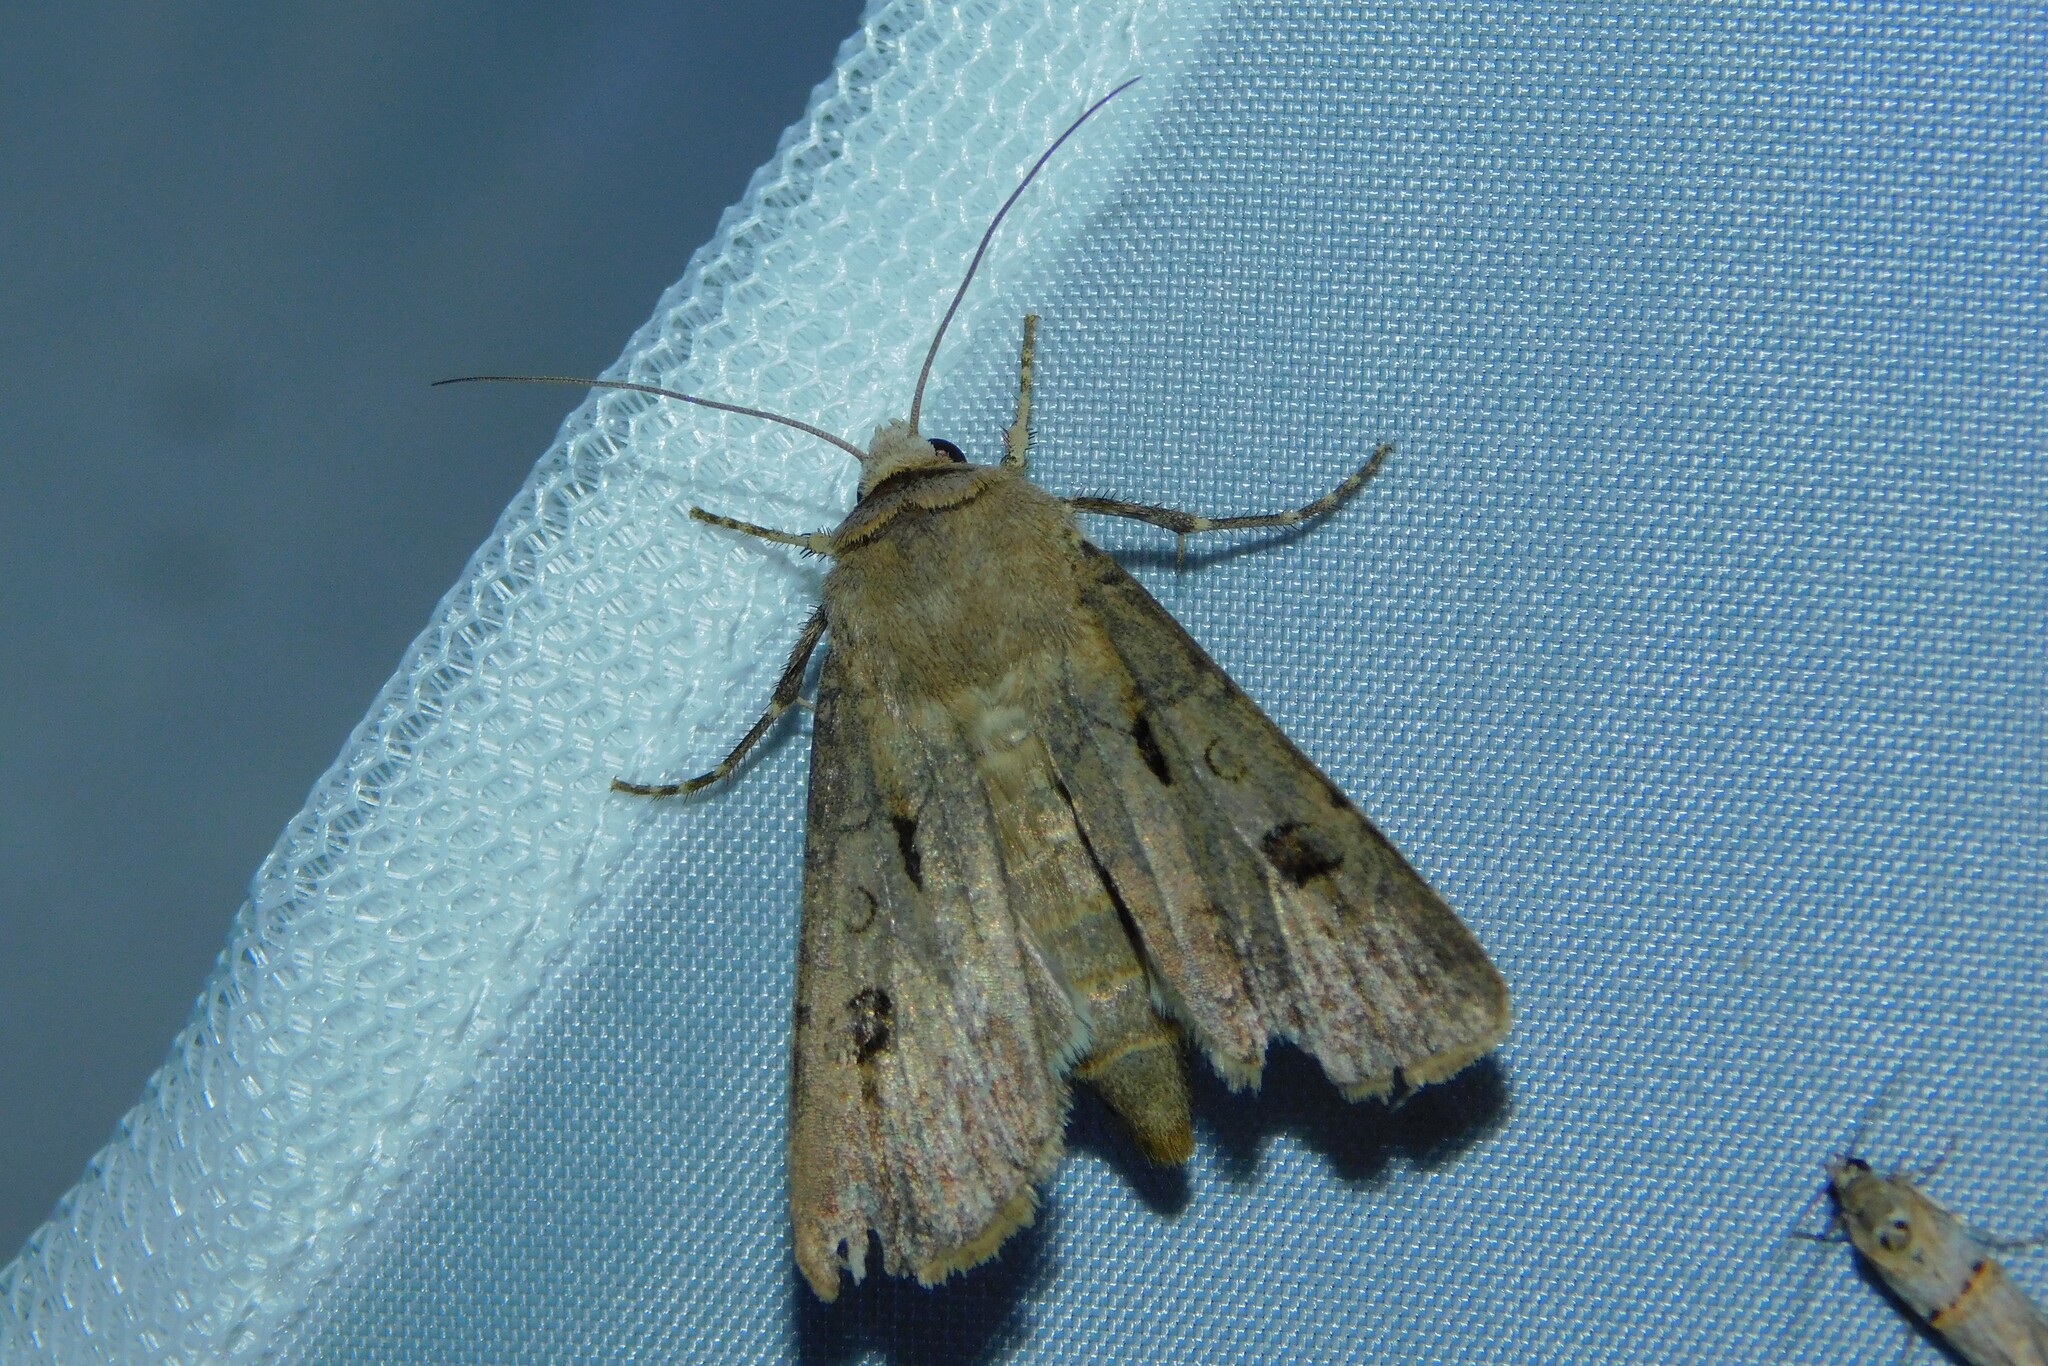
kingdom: Animalia
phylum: Arthropoda
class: Insecta
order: Lepidoptera
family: Noctuidae
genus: Agrotis
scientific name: Agrotis exclamationis
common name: Heart and dart
